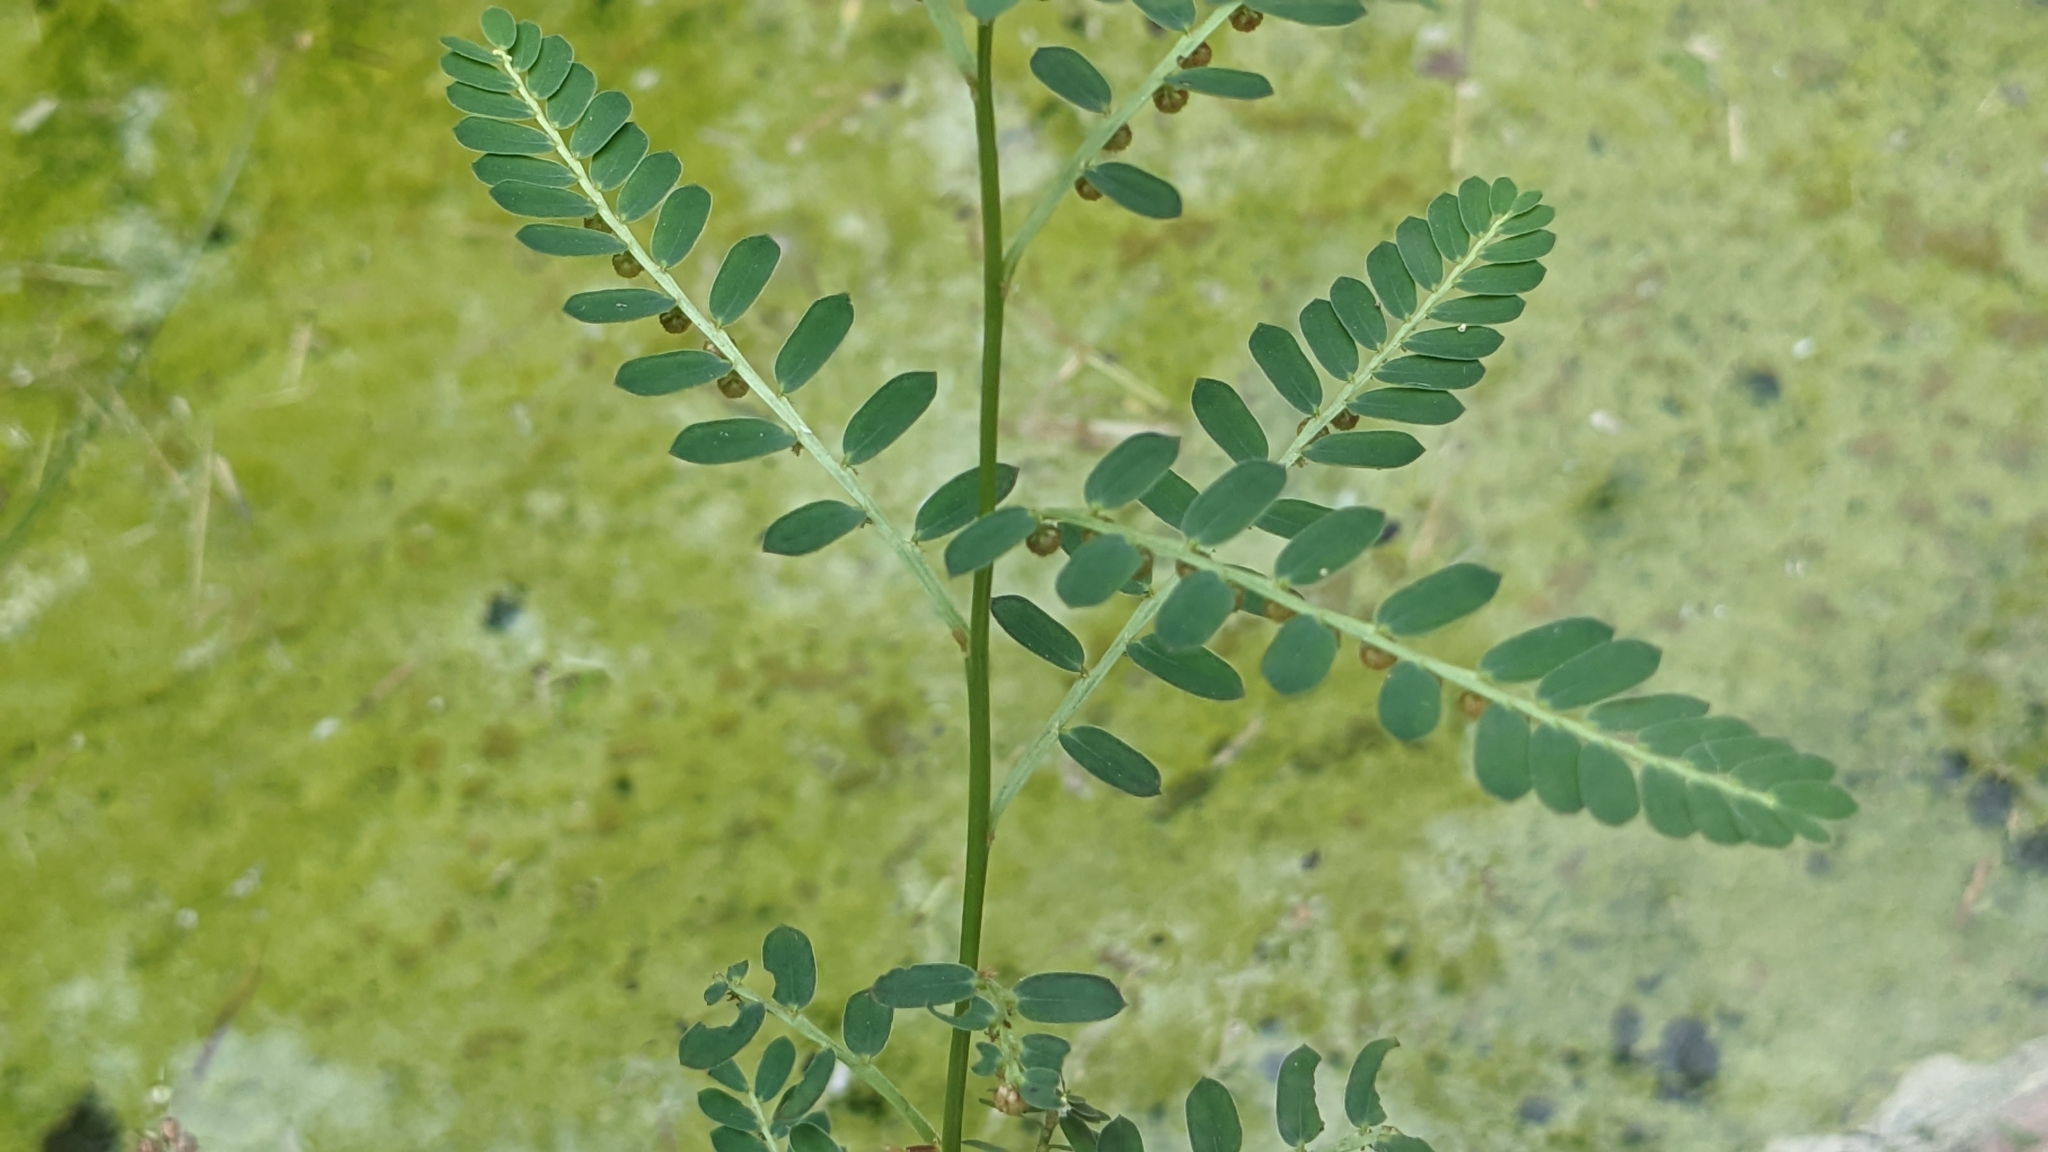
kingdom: Plantae
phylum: Tracheophyta
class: Magnoliopsida
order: Malpighiales
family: Phyllanthaceae
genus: Phyllanthus
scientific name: Phyllanthus urinaria
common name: Chamber bitter
